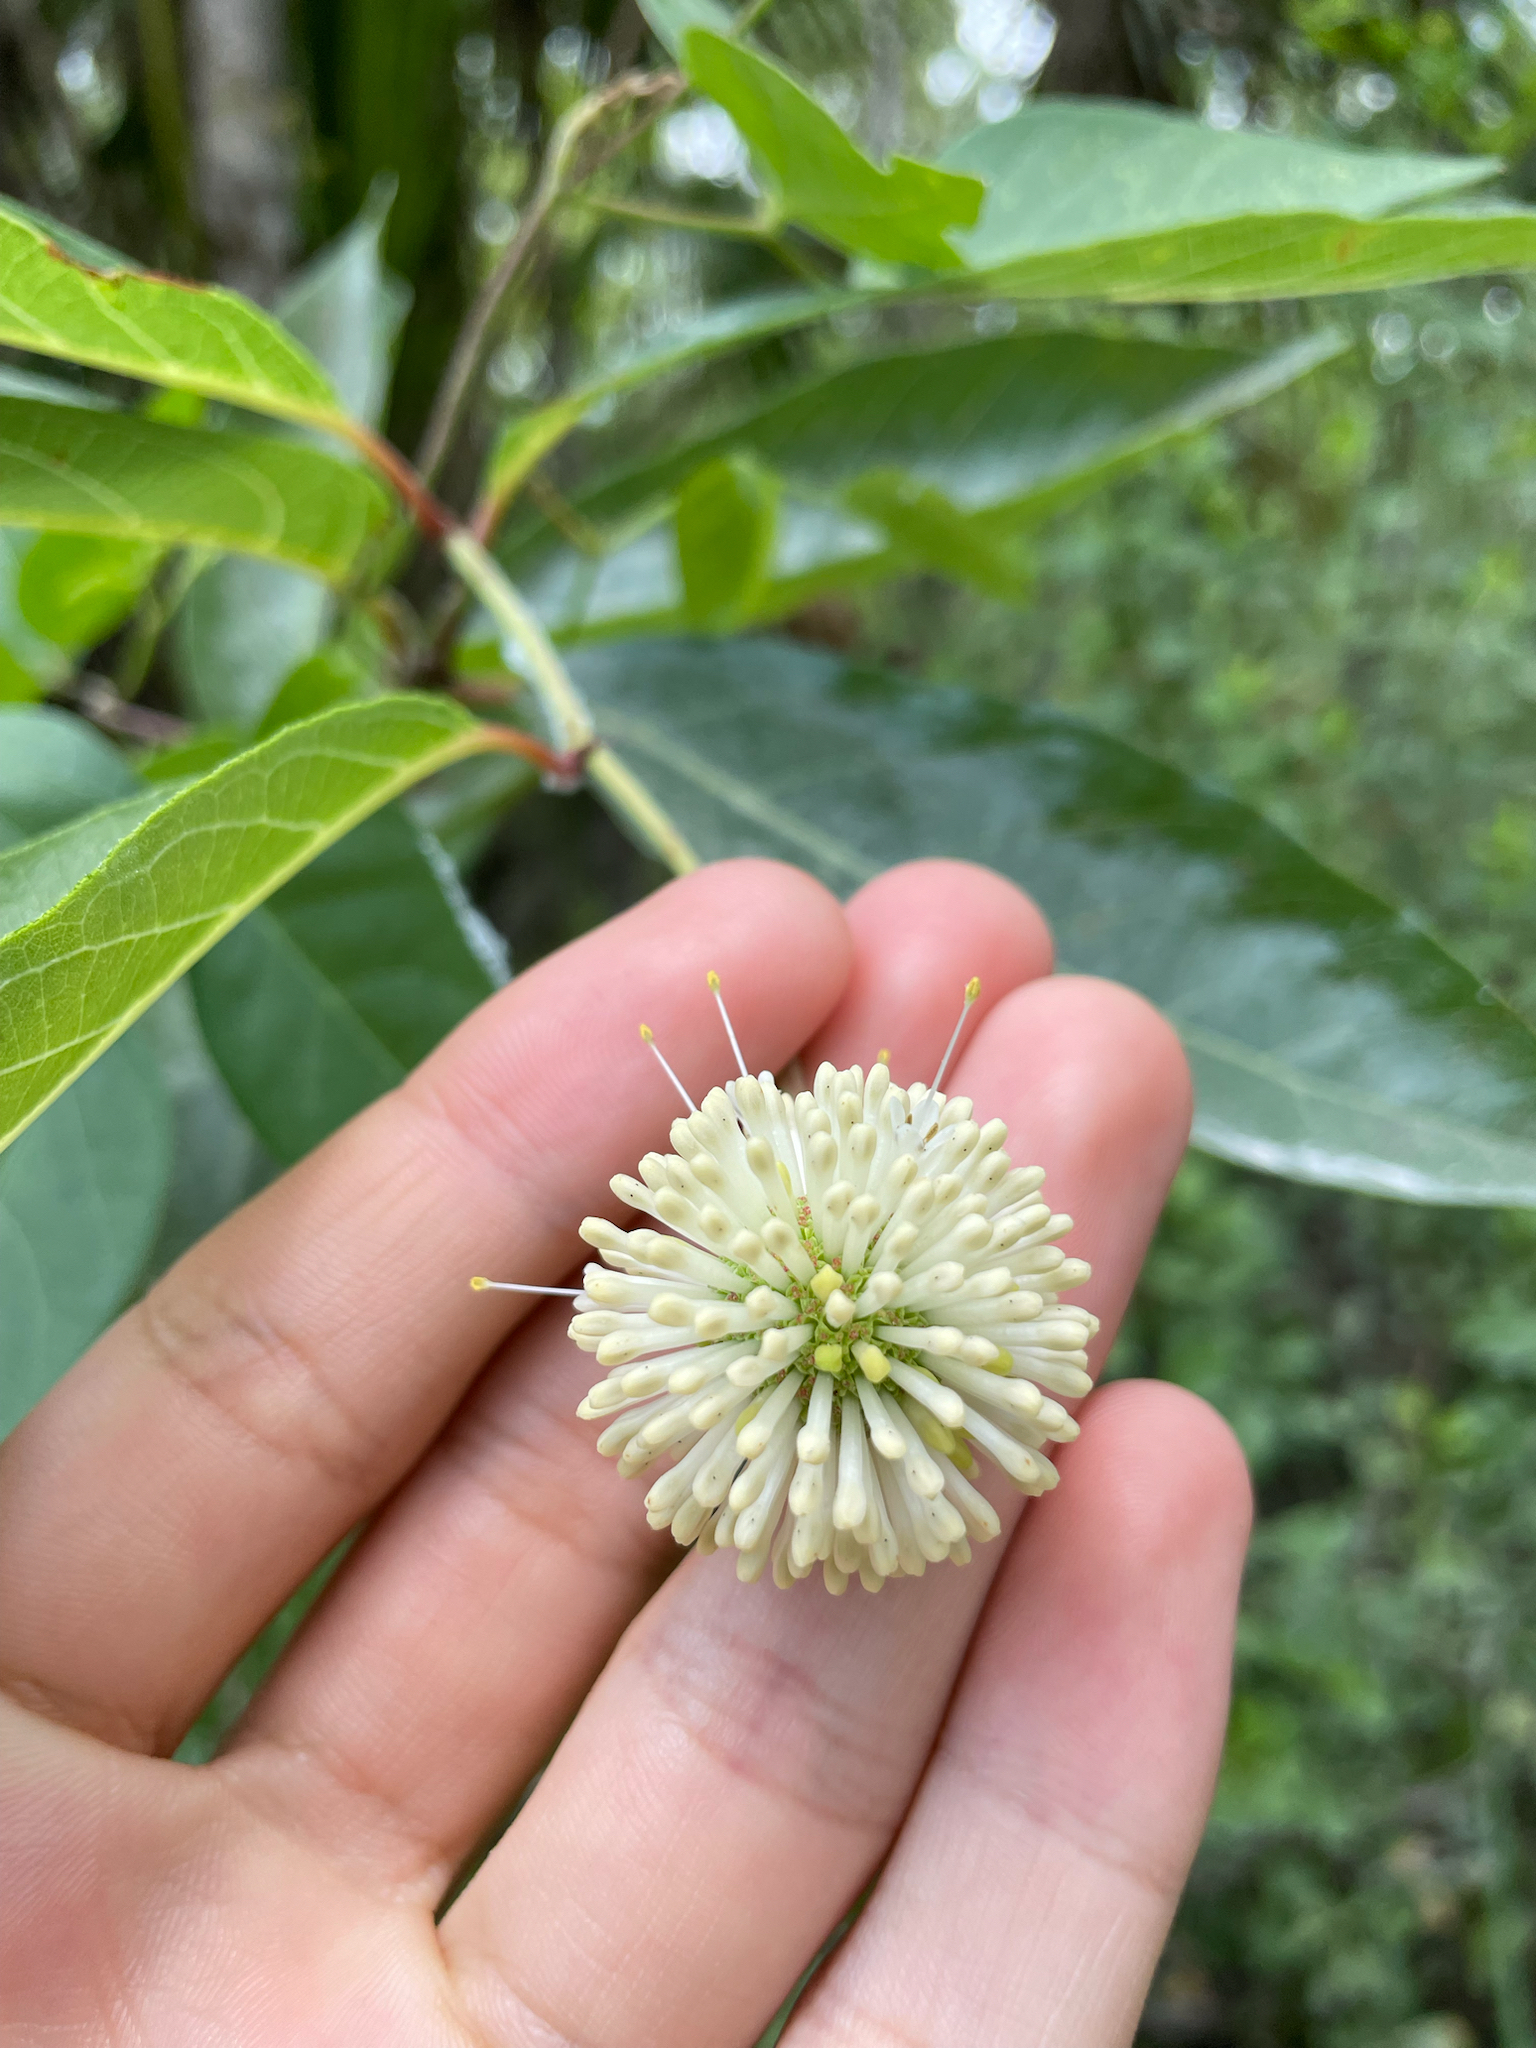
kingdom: Plantae
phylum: Tracheophyta
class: Magnoliopsida
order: Gentianales
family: Rubiaceae
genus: Cephalanthus
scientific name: Cephalanthus occidentalis
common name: Button-willow
